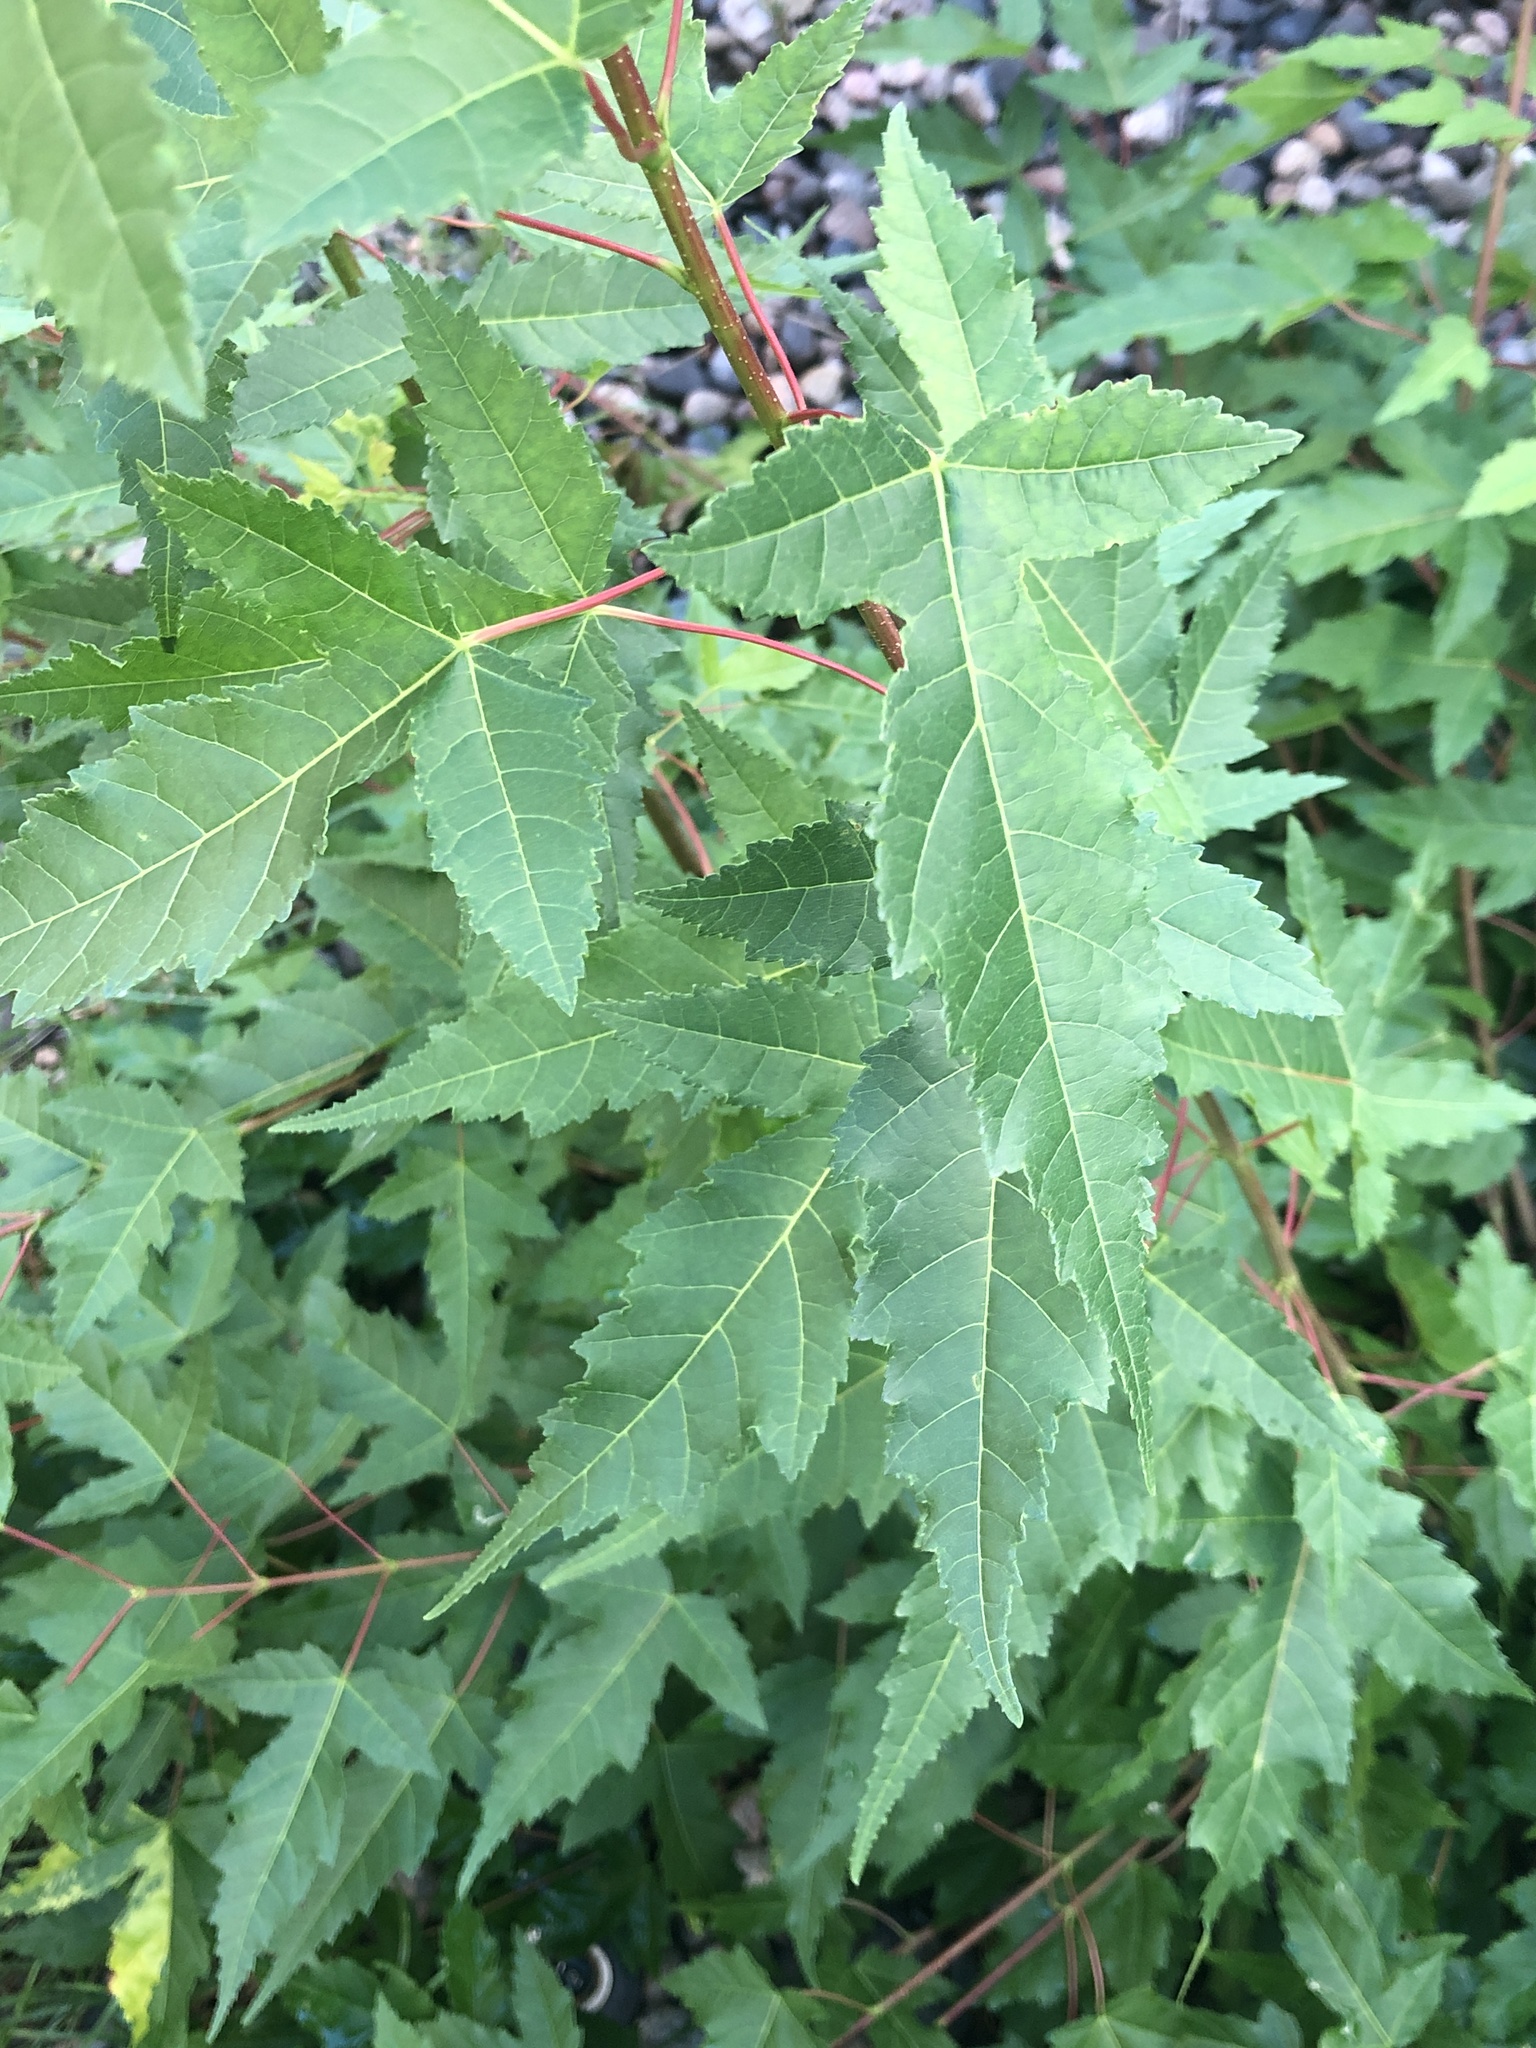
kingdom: Plantae
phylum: Tracheophyta
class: Magnoliopsida
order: Sapindales
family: Sapindaceae
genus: Acer
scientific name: Acer tataricum
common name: Tartar maple
